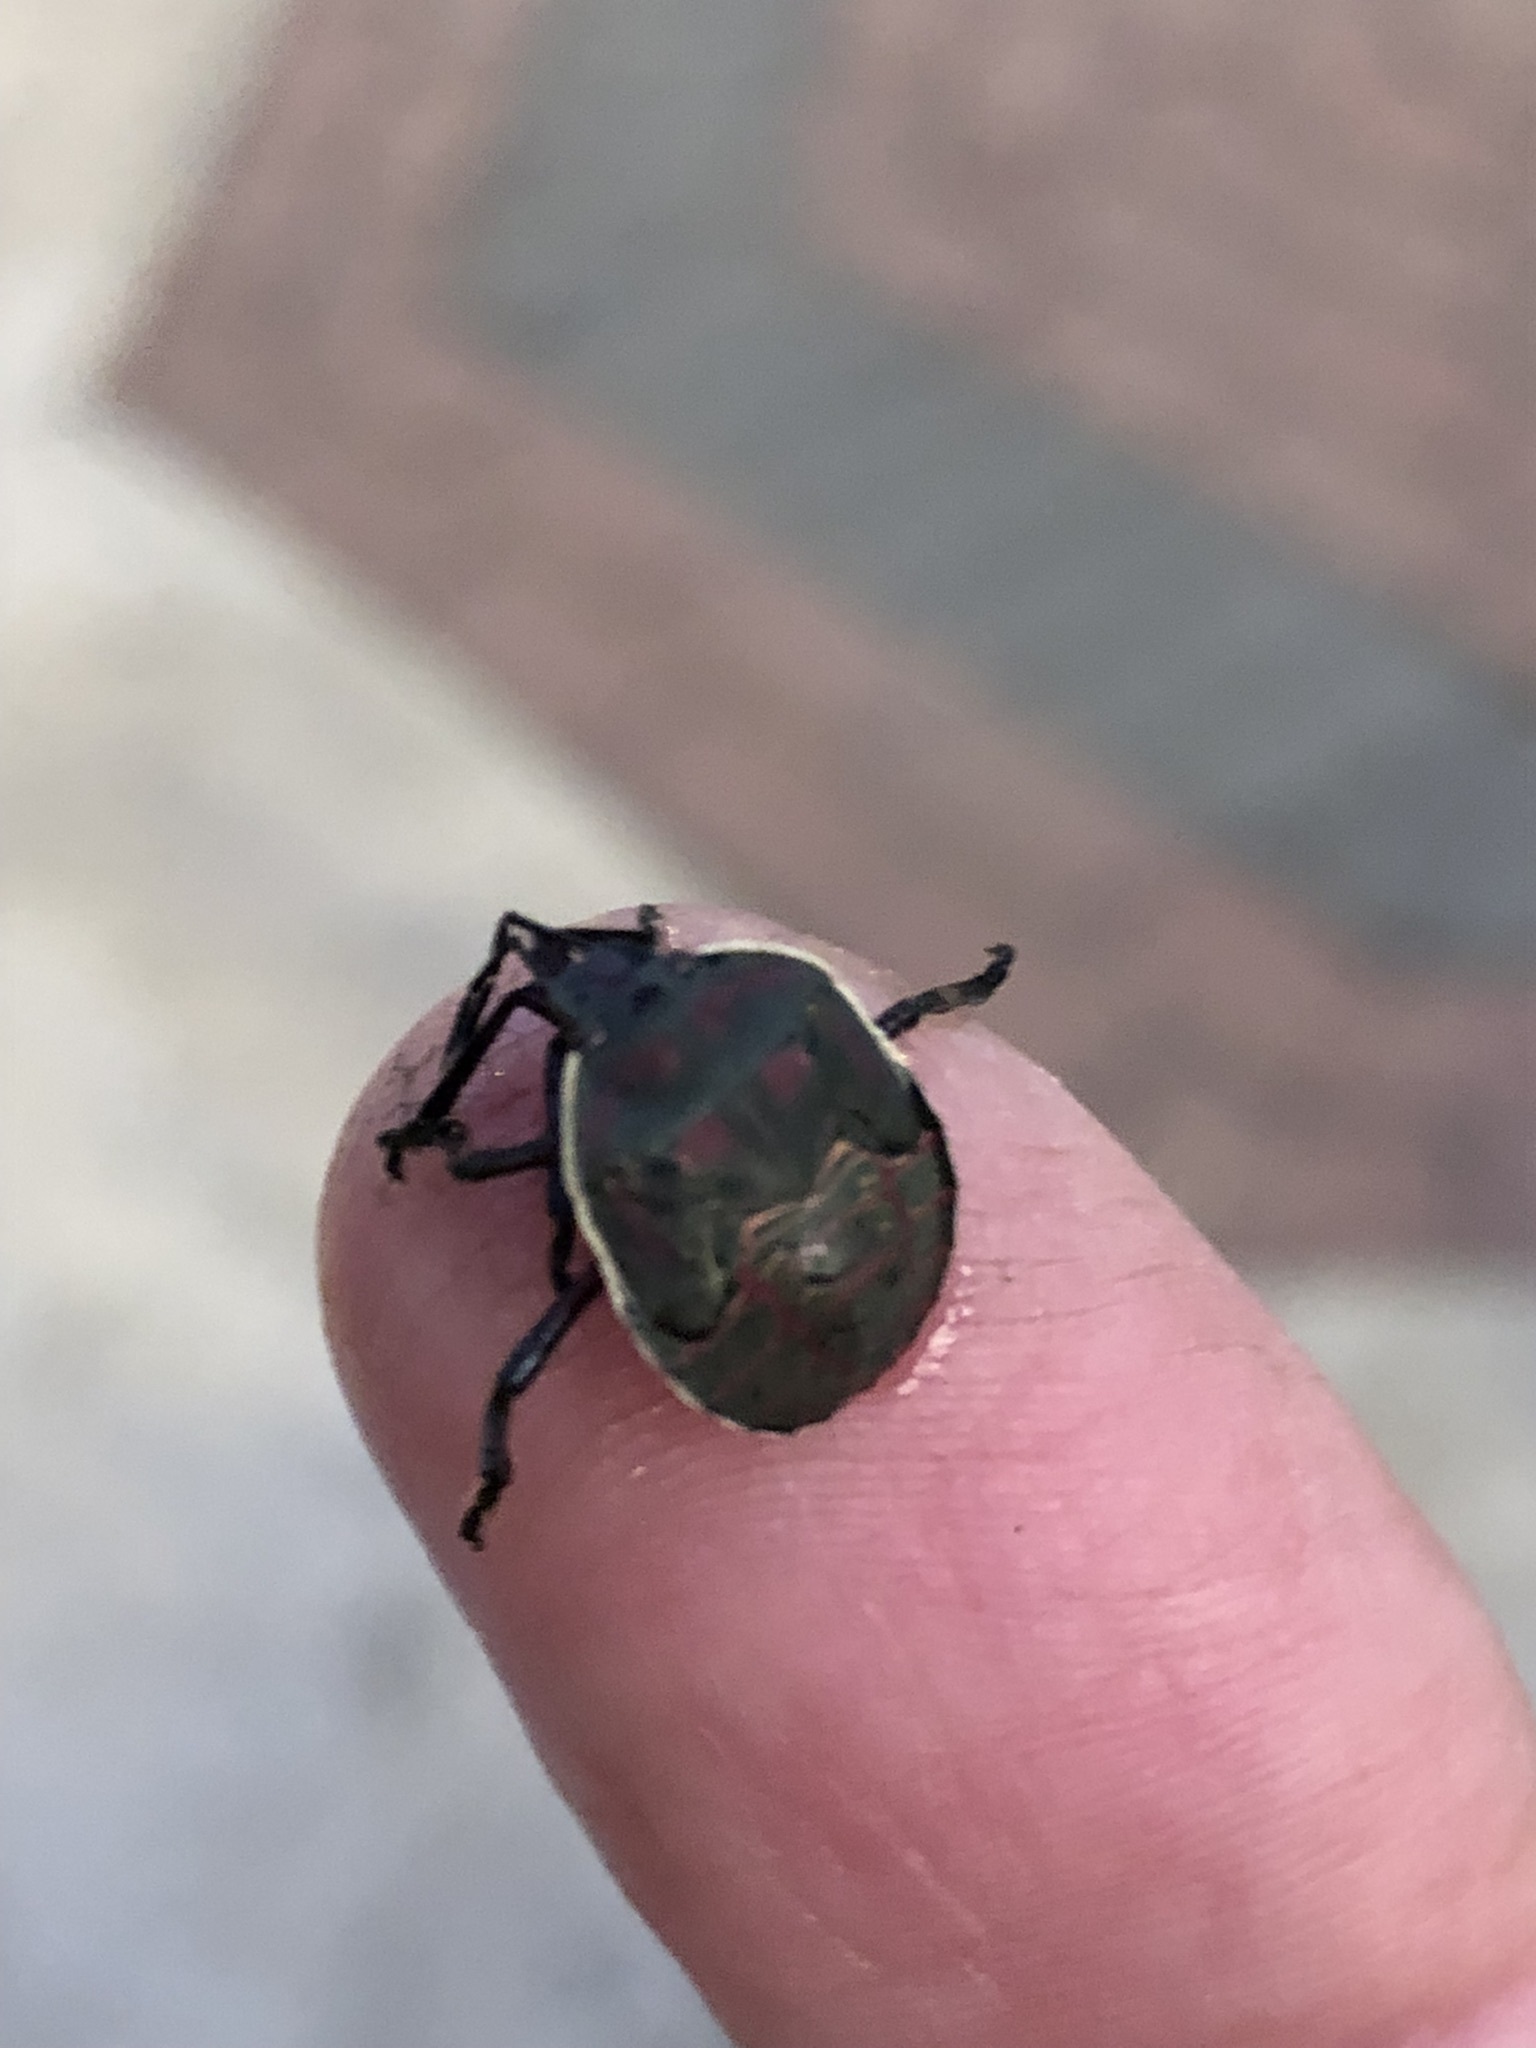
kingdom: Animalia
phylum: Arthropoda
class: Insecta
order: Hemiptera
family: Pentatomidae
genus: Pellaea
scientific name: Pellaea stictica
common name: Stink bug
